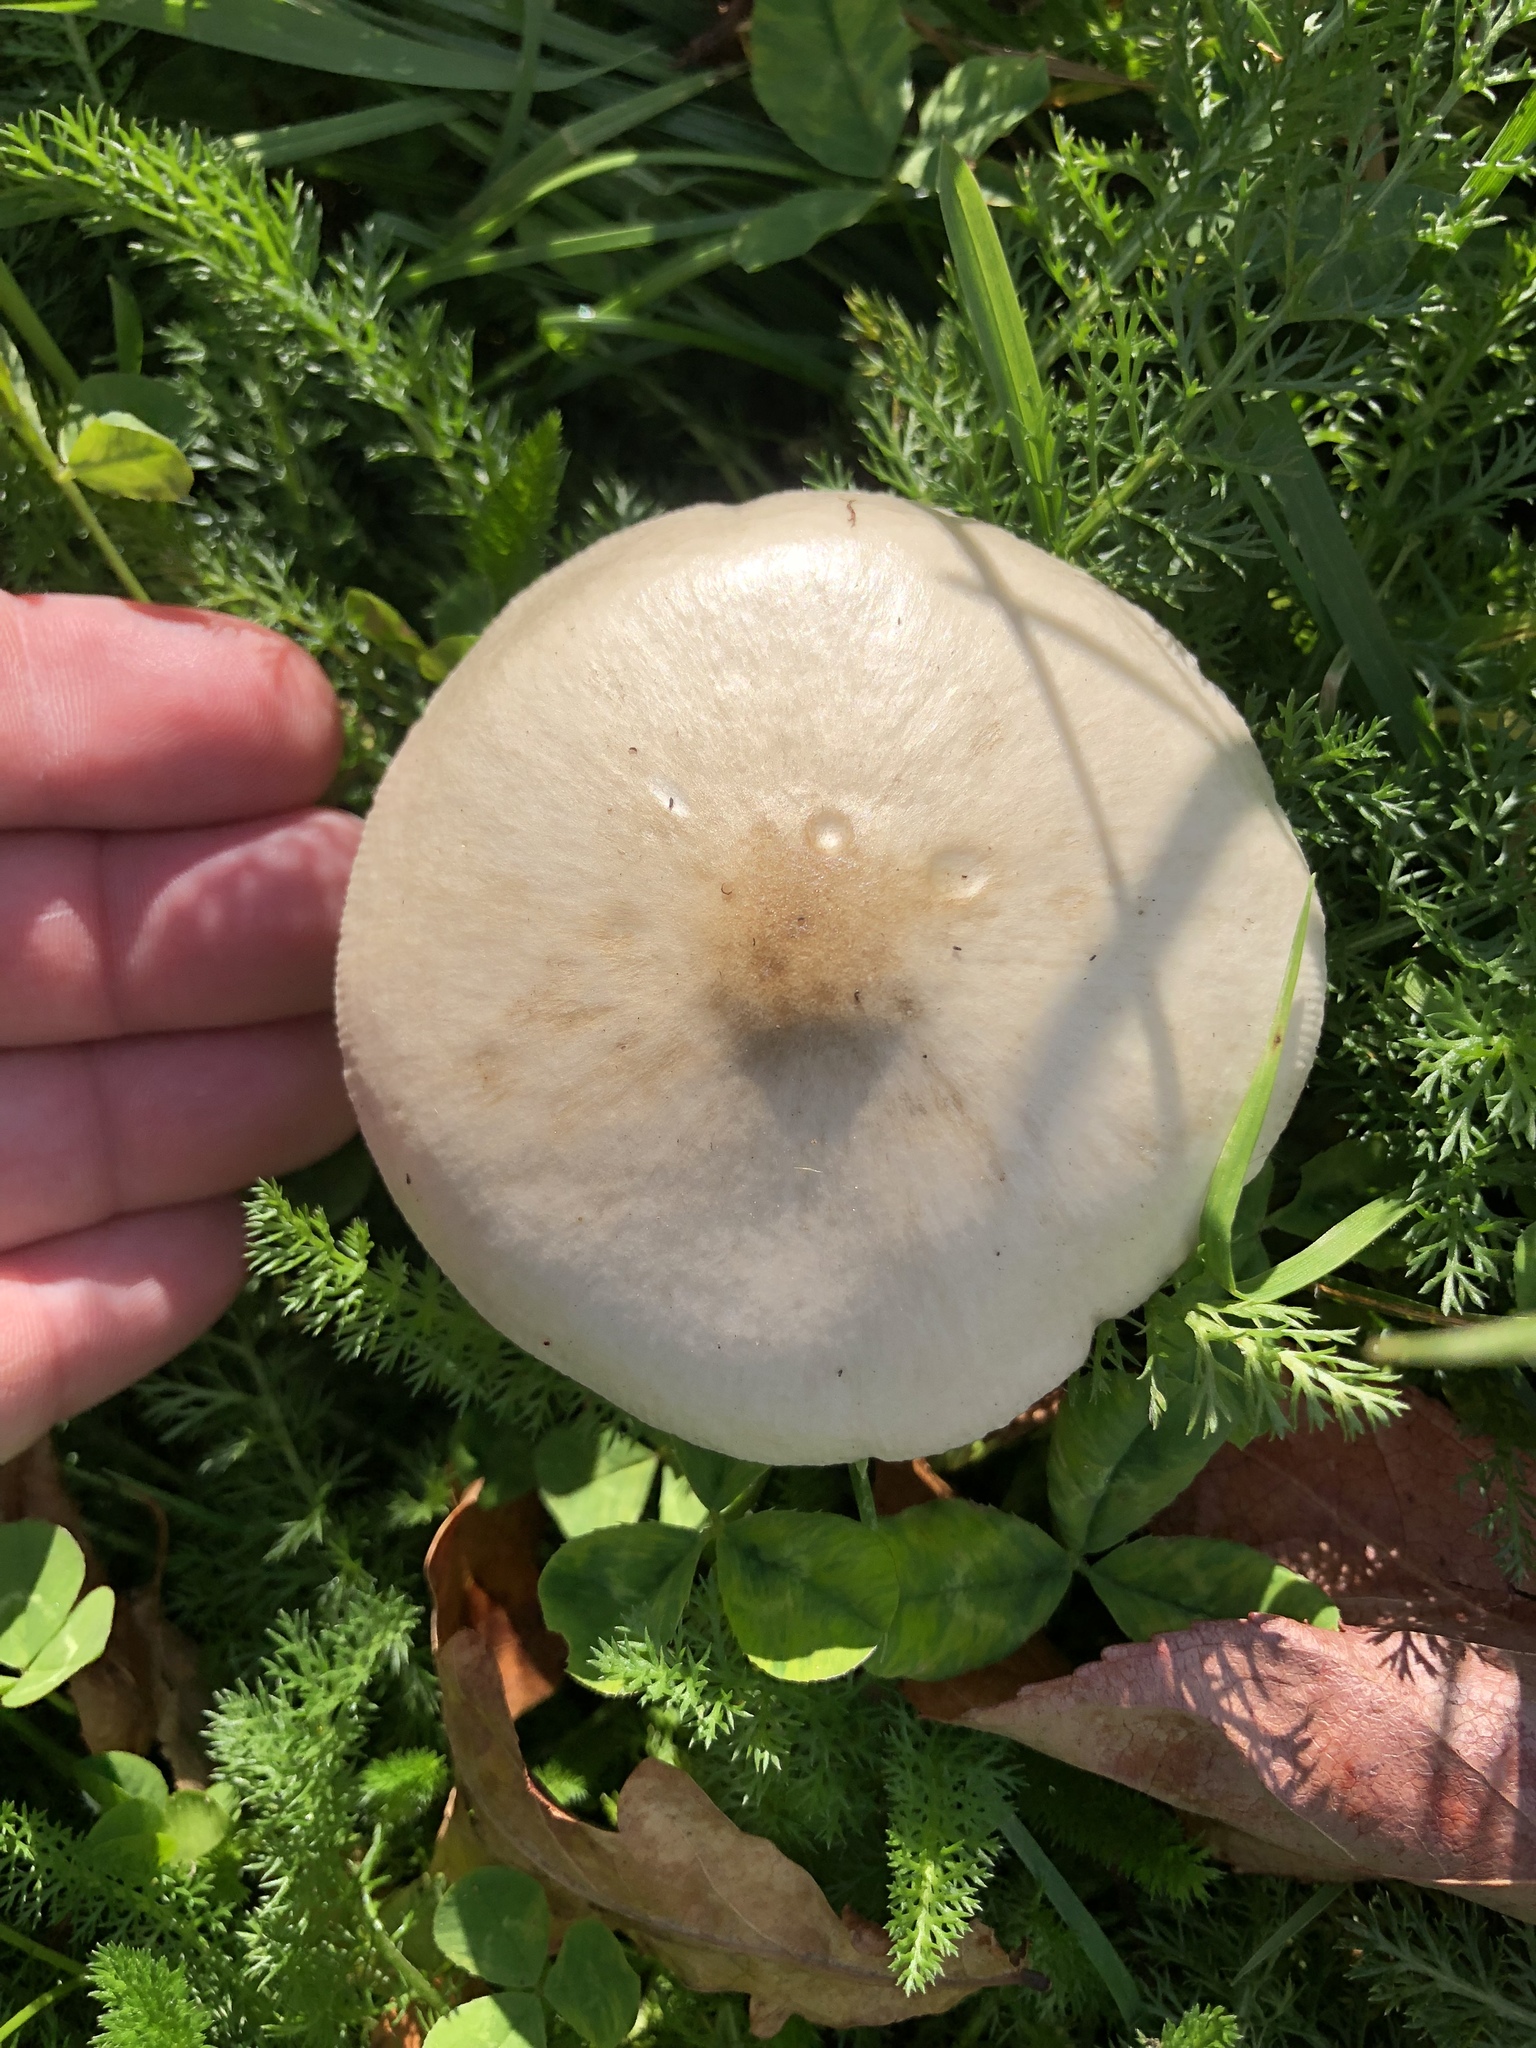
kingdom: Fungi
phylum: Basidiomycota
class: Agaricomycetes
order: Agaricales
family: Pluteaceae
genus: Volvopluteus
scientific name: Volvopluteus gloiocephalus
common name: Stubble rosegill
